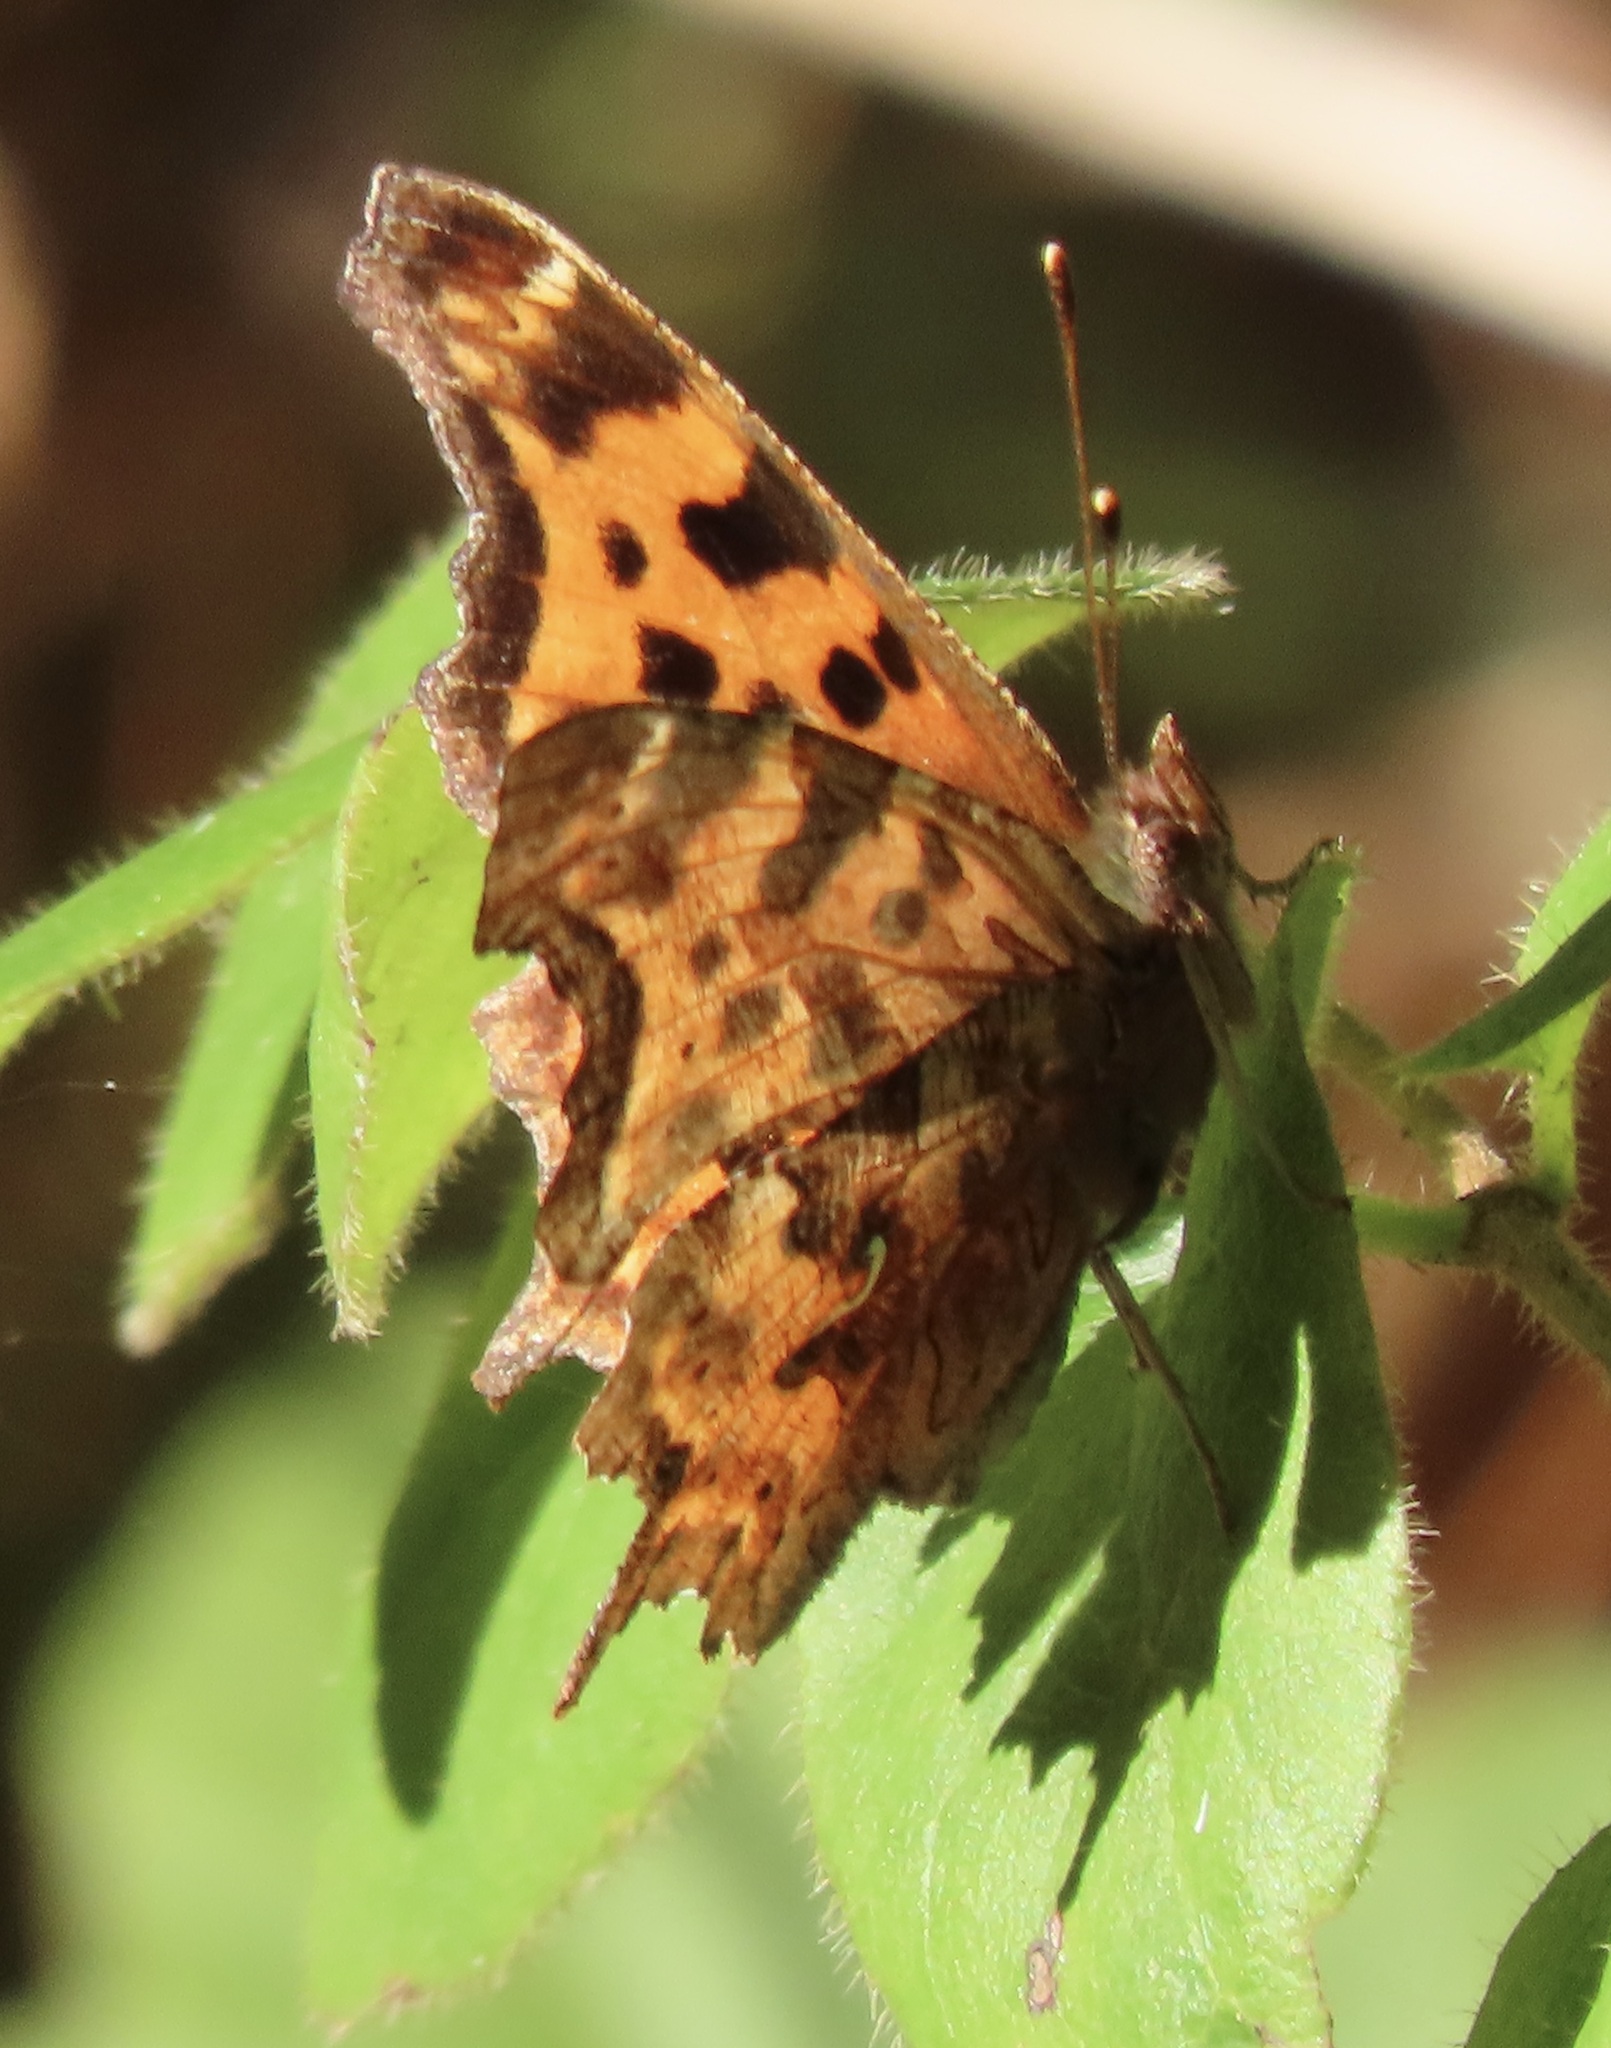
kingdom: Animalia
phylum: Arthropoda
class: Insecta
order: Lepidoptera
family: Nymphalidae
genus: Polygonia
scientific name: Polygonia satyrus
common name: Satyr angle wing
